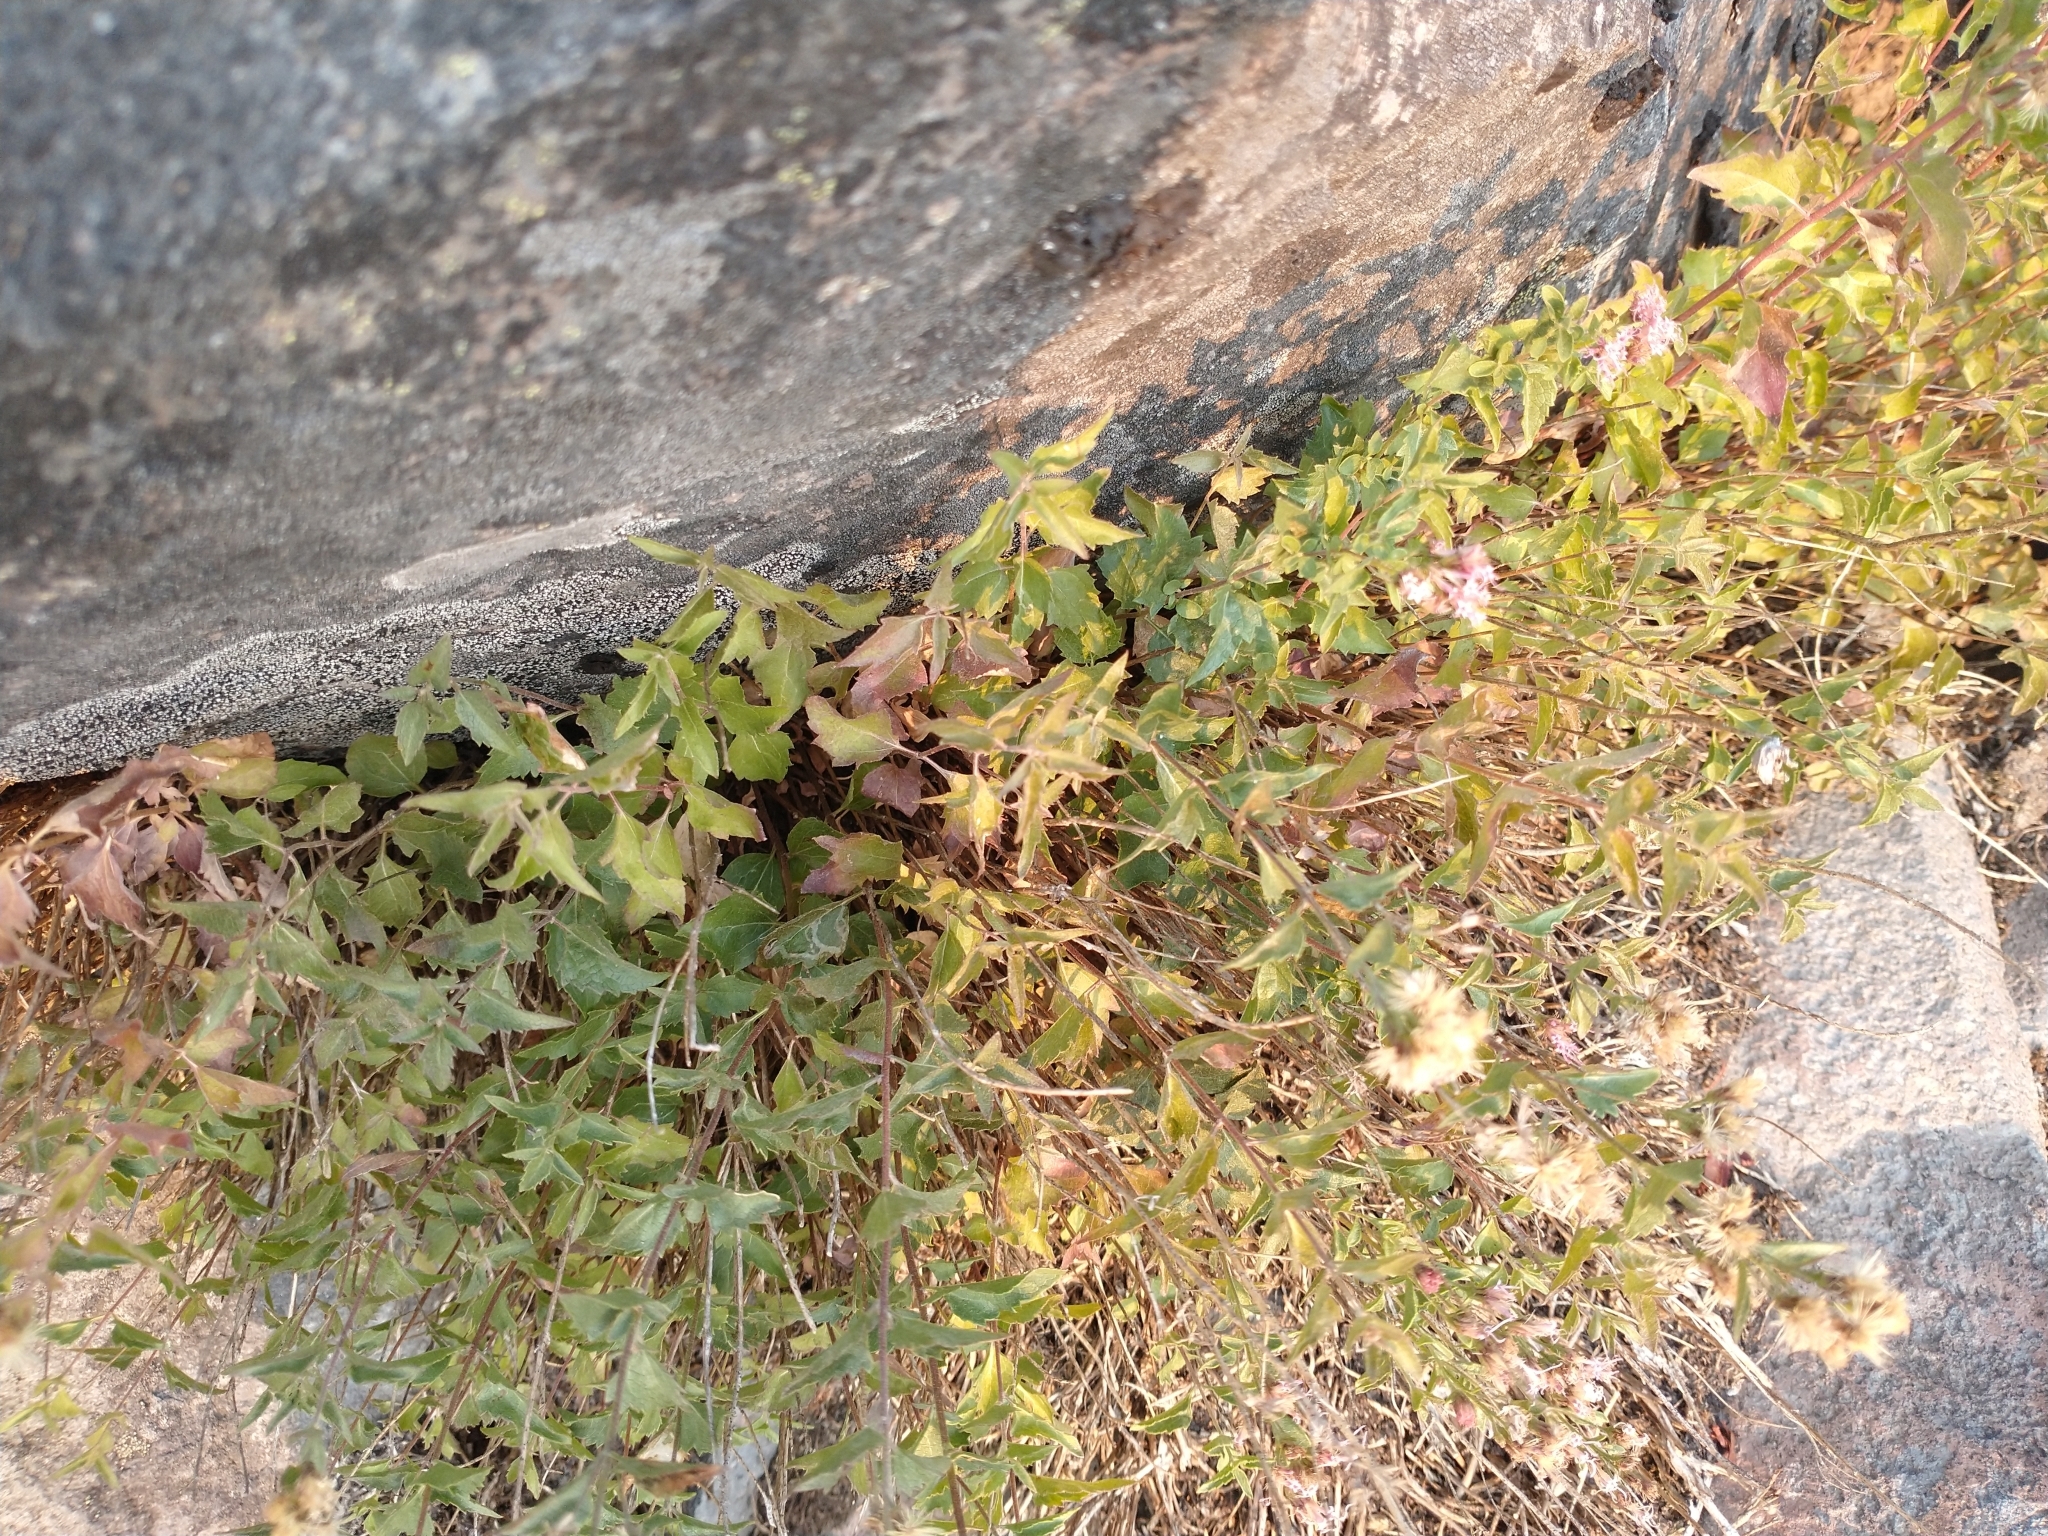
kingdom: Plantae
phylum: Tracheophyta
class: Magnoliopsida
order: Asterales
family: Asteraceae
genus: Ageratina
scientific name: Ageratina occidentalis
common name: Western snakeroot
